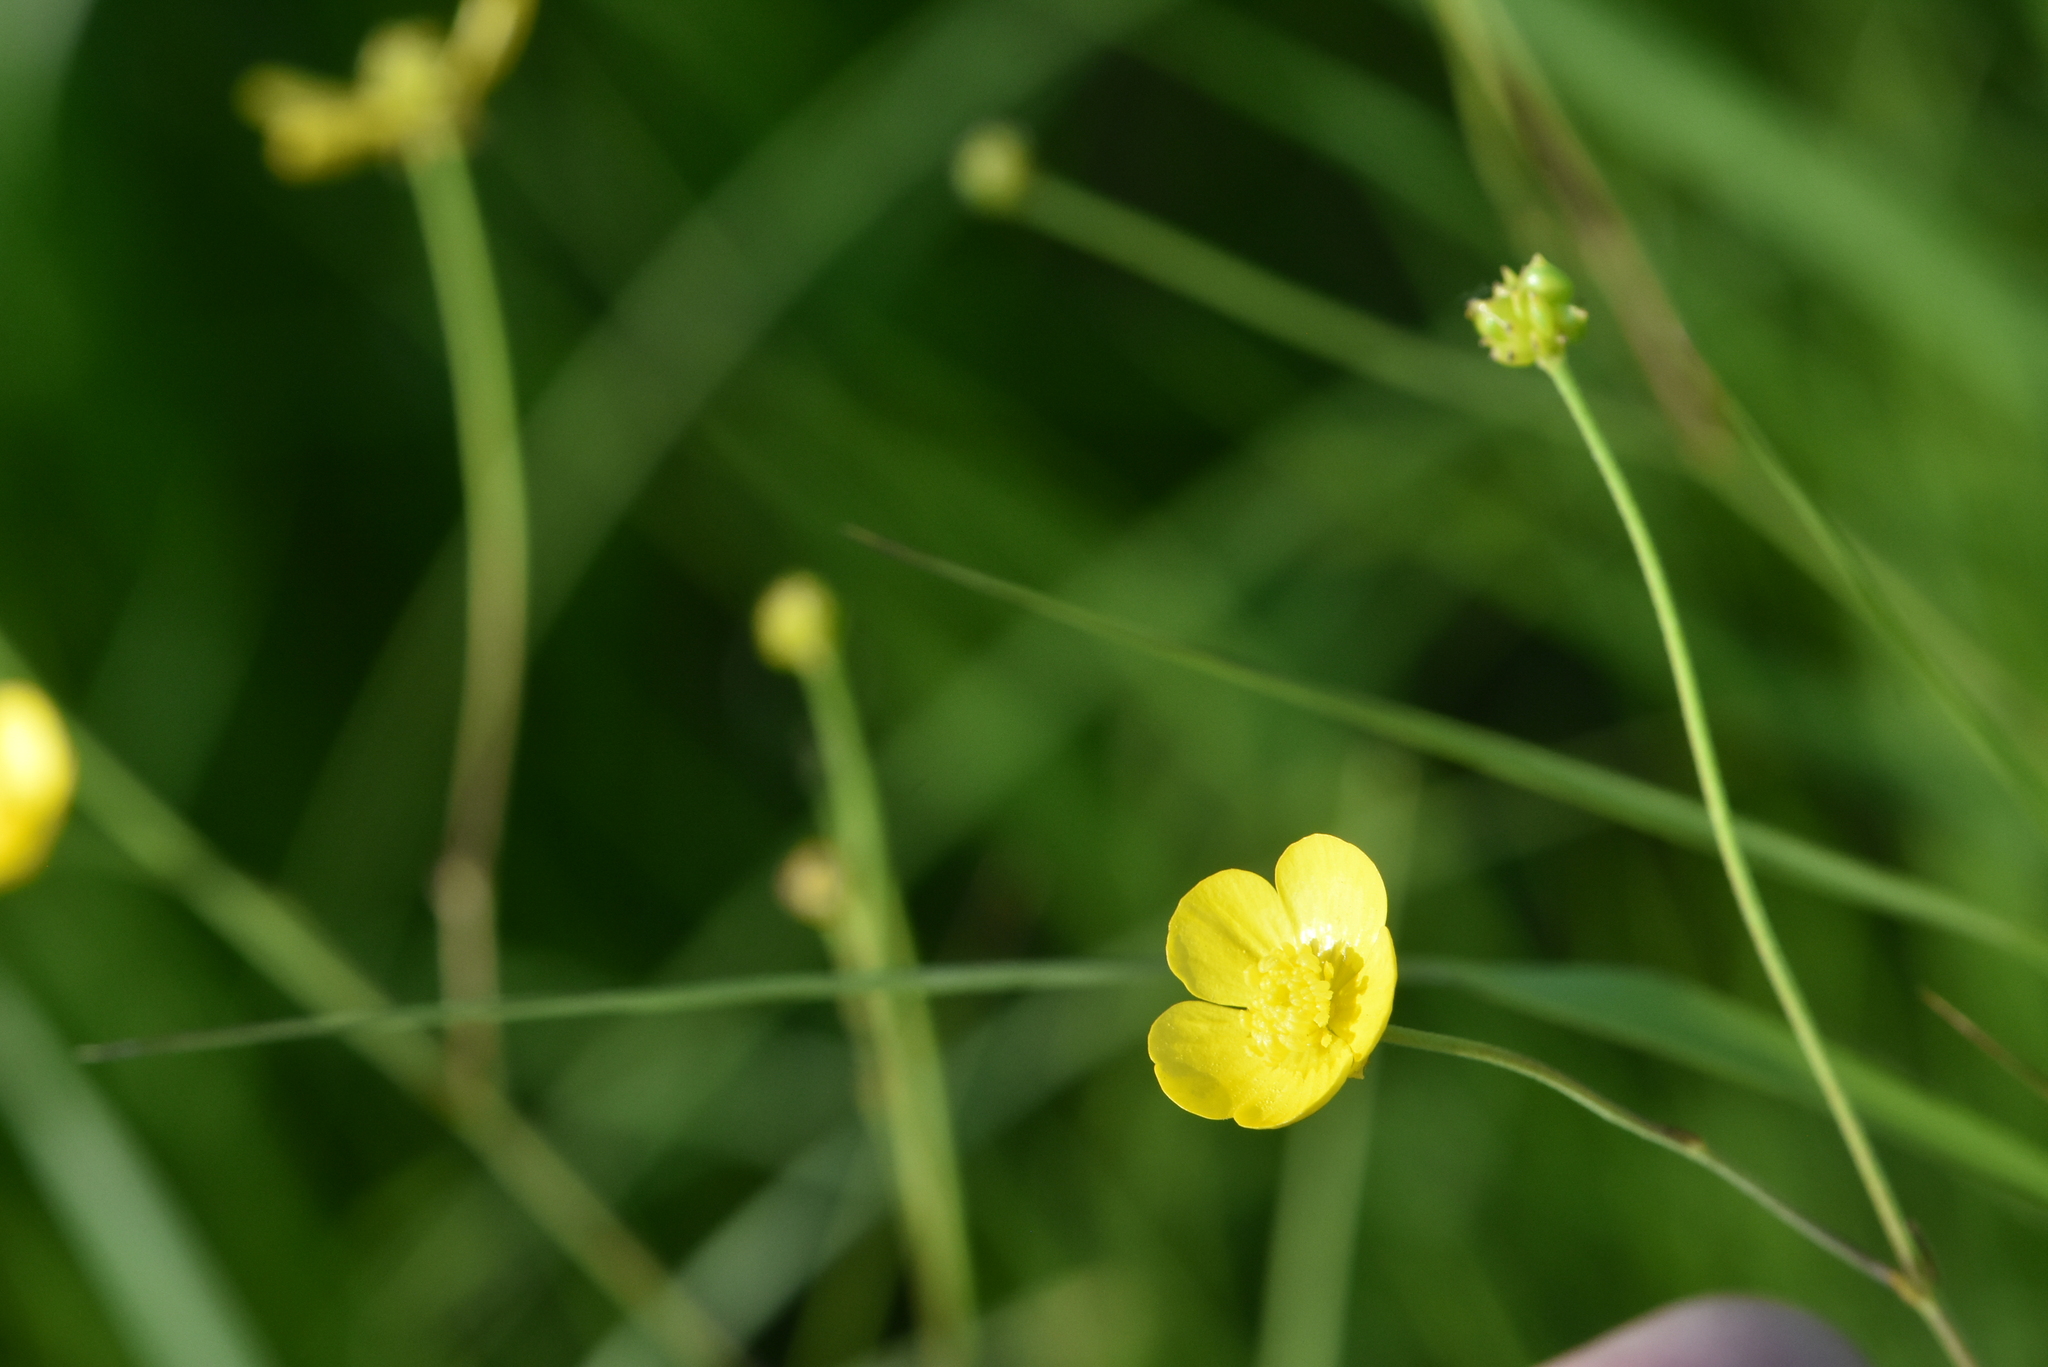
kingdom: Plantae
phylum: Tracheophyta
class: Magnoliopsida
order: Ranunculales
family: Ranunculaceae
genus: Ranunculus
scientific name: Ranunculus acris
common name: Meadow buttercup
